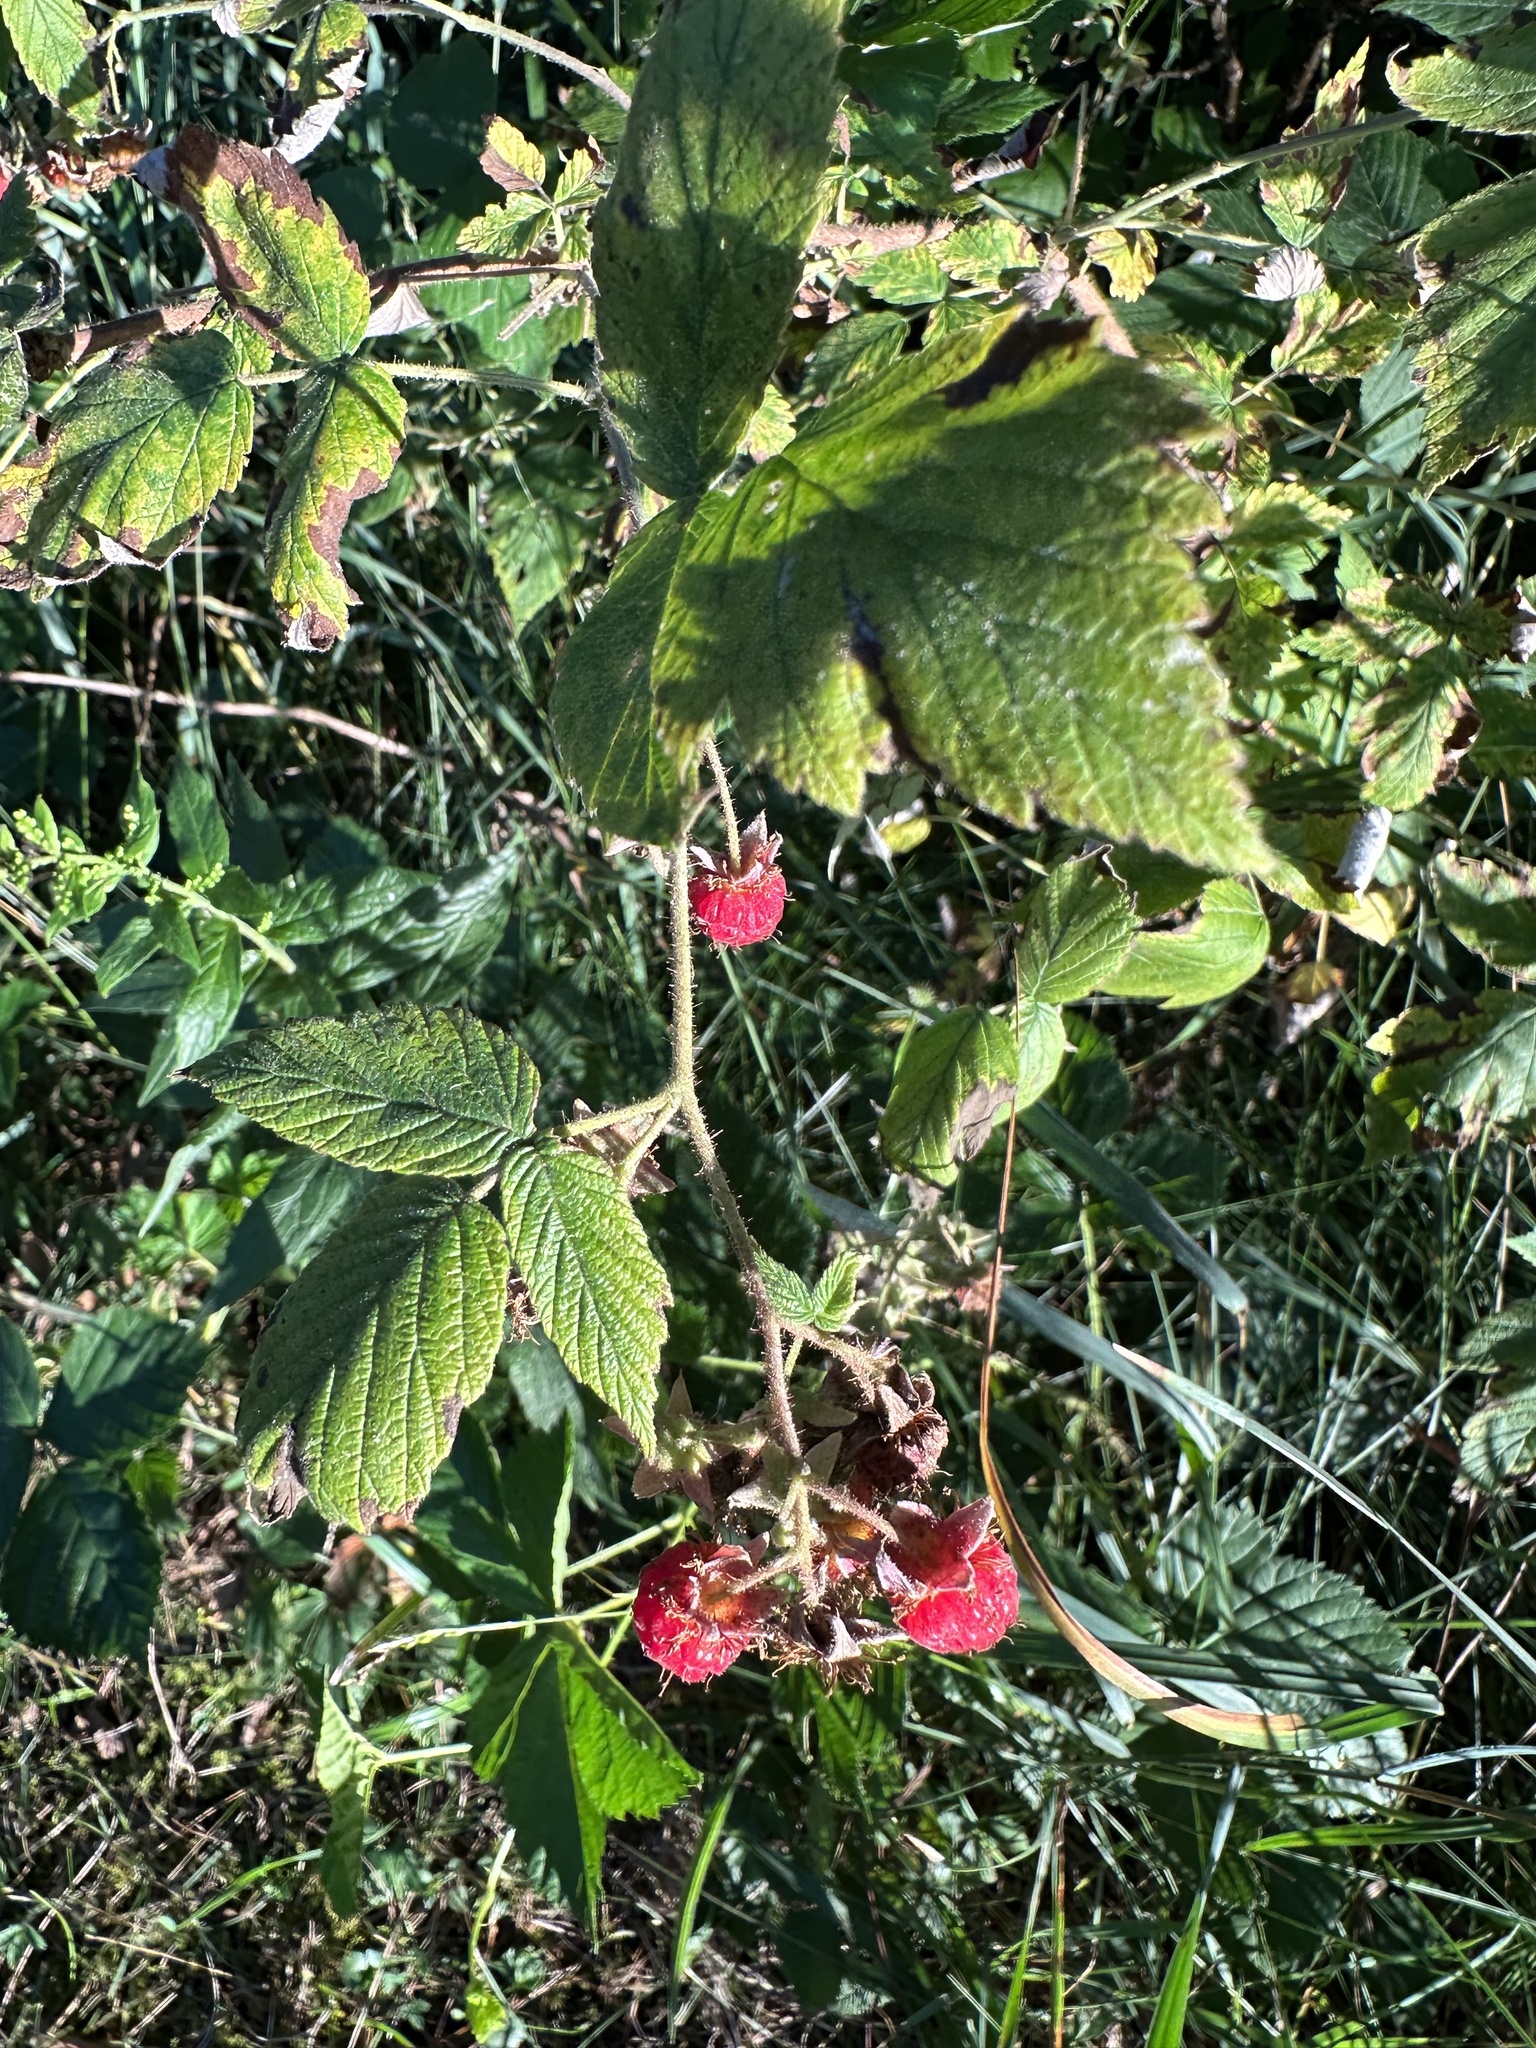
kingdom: Plantae
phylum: Tracheophyta
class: Magnoliopsida
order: Rosales
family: Rosaceae
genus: Rubus
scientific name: Rubus idaeus
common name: Raspberry
